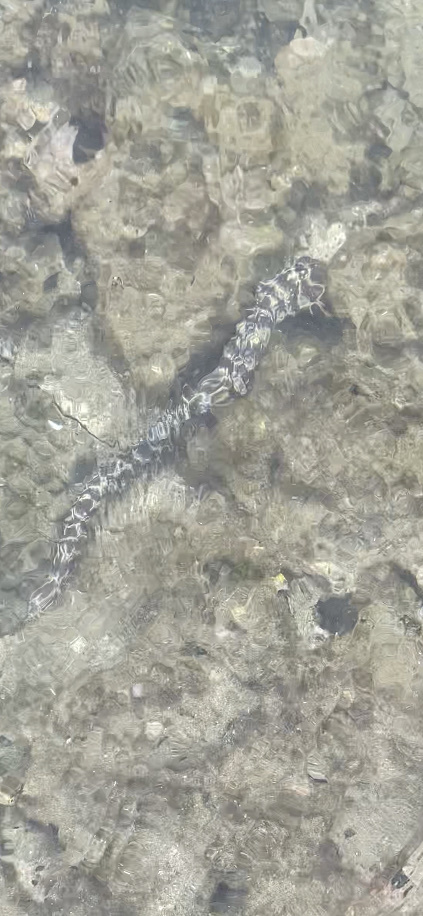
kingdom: Animalia
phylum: Chordata
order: Anguilliformes
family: Muraenidae
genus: Echidna
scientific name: Echidna catenata
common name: Chain moray
